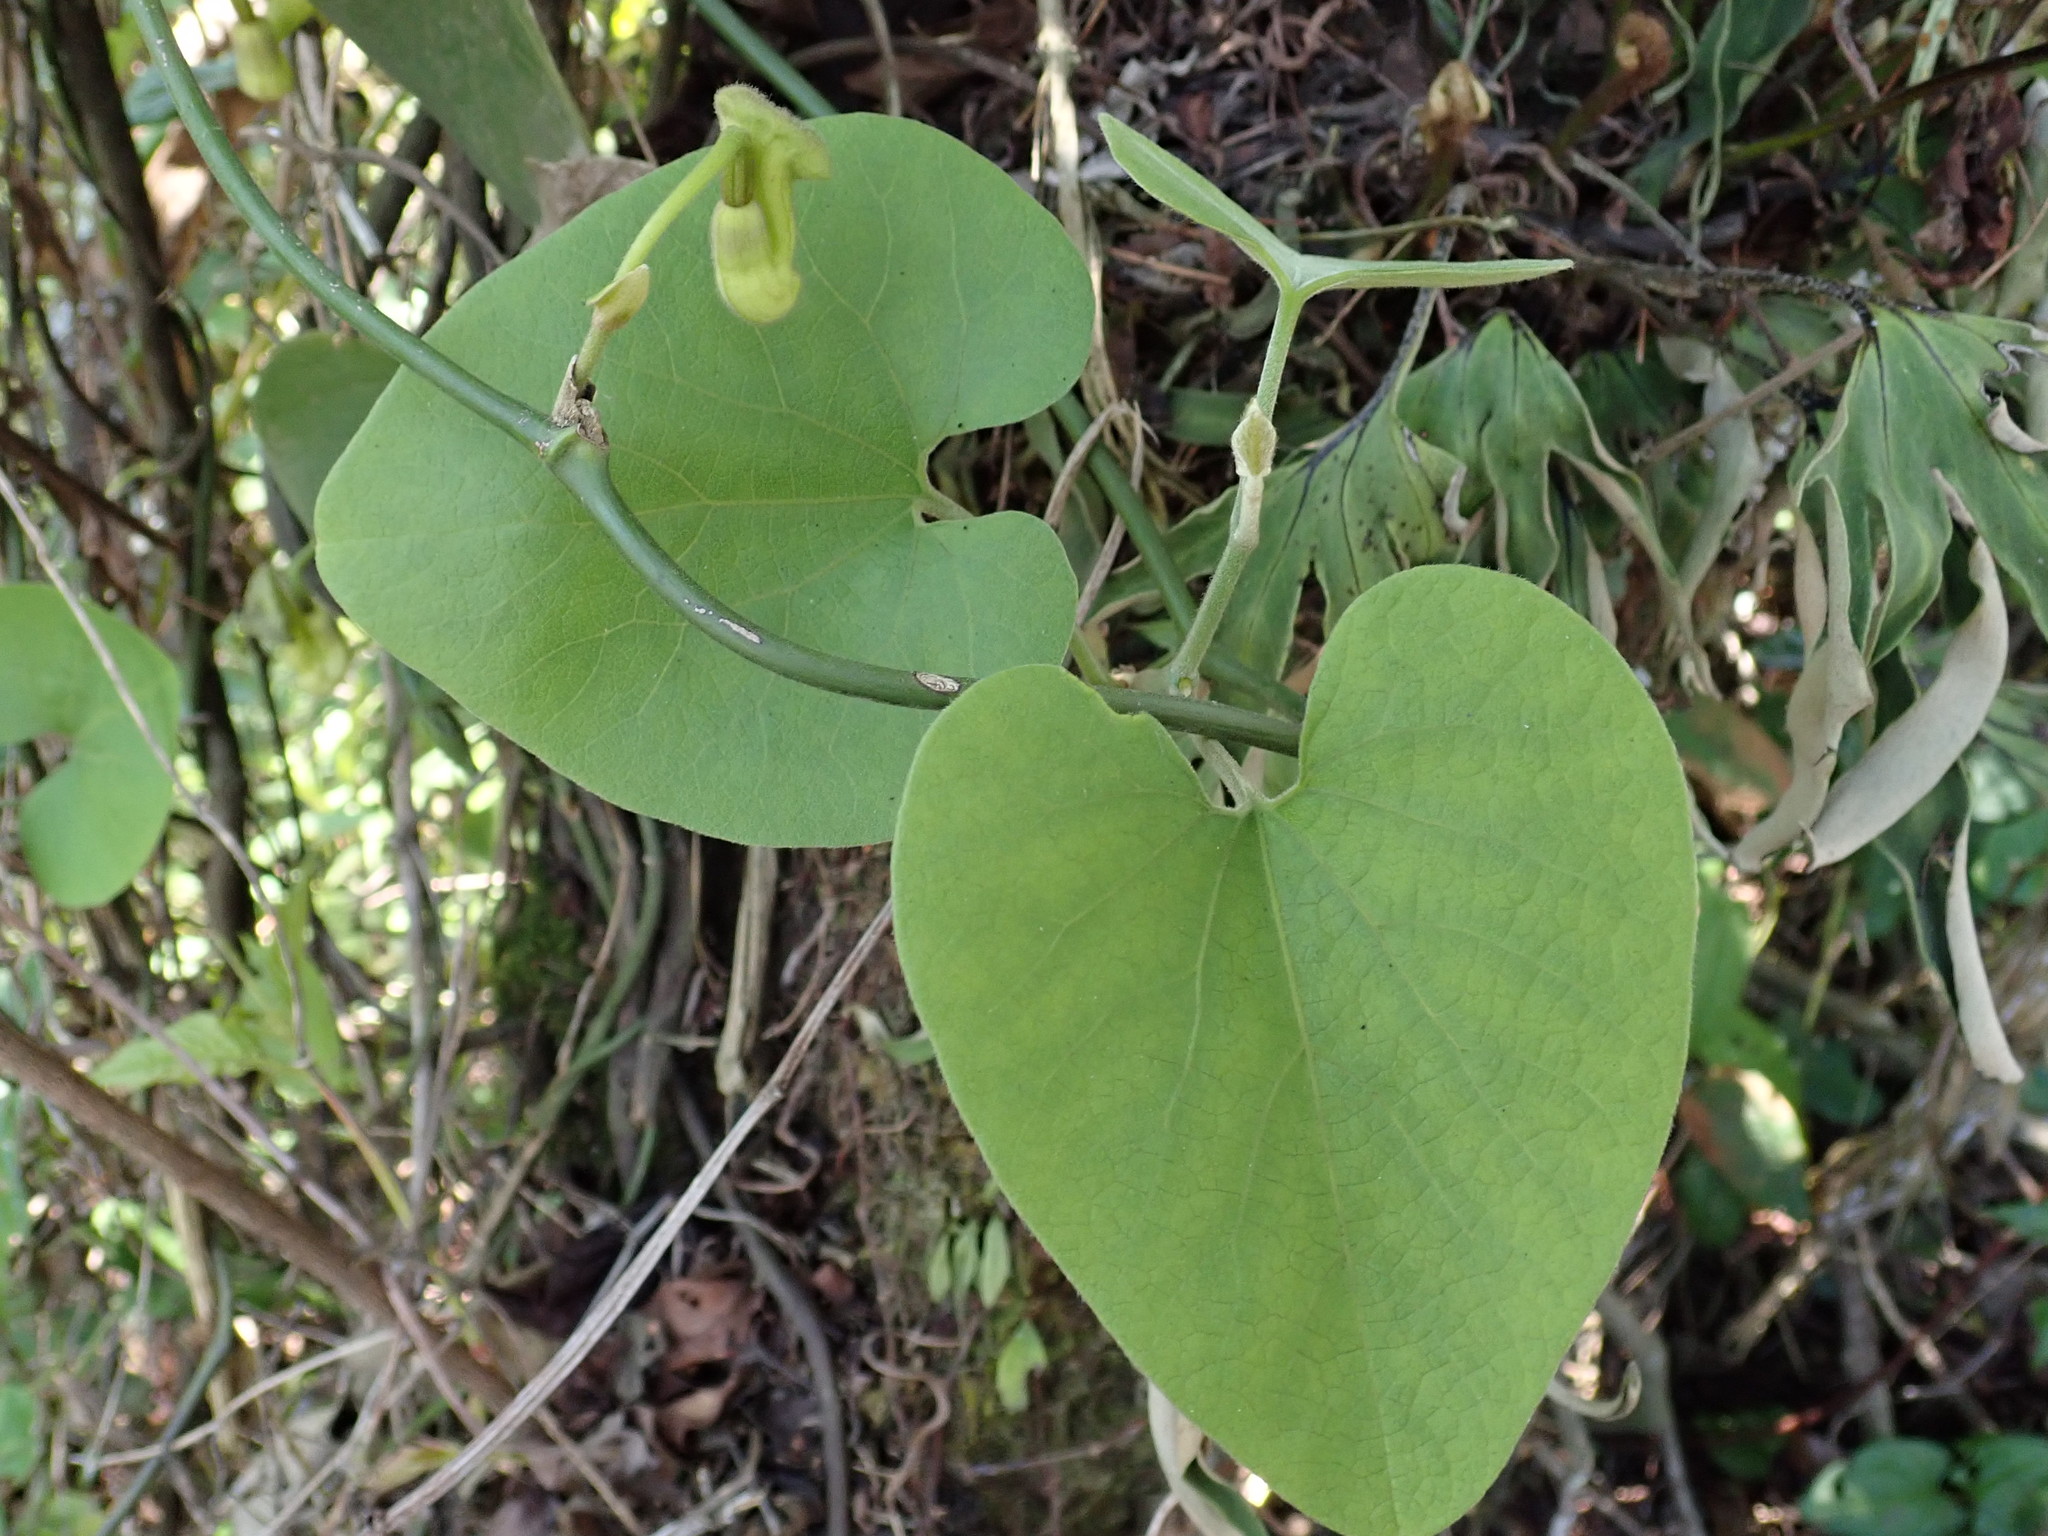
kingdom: Plantae
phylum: Tracheophyta
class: Magnoliopsida
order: Piperales
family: Aristolochiaceae
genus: Isotrema
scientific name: Isotrema shimadae
